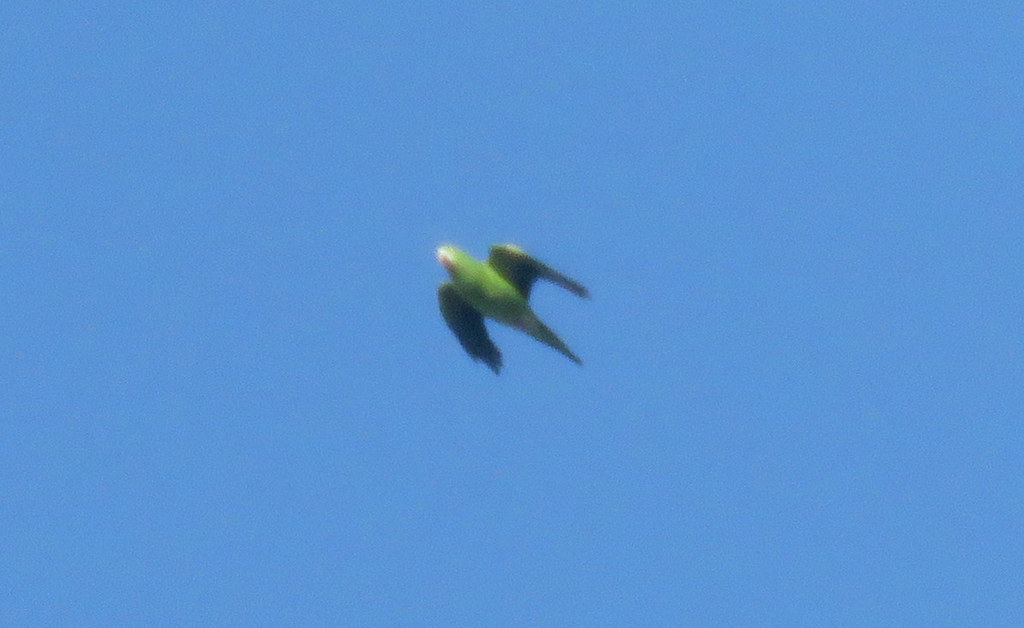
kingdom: Animalia
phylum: Chordata
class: Aves
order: Psittaciformes
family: Psittacidae
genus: Brotogeris
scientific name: Brotogeris chiriri
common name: Yellow-chevroned parakeet
